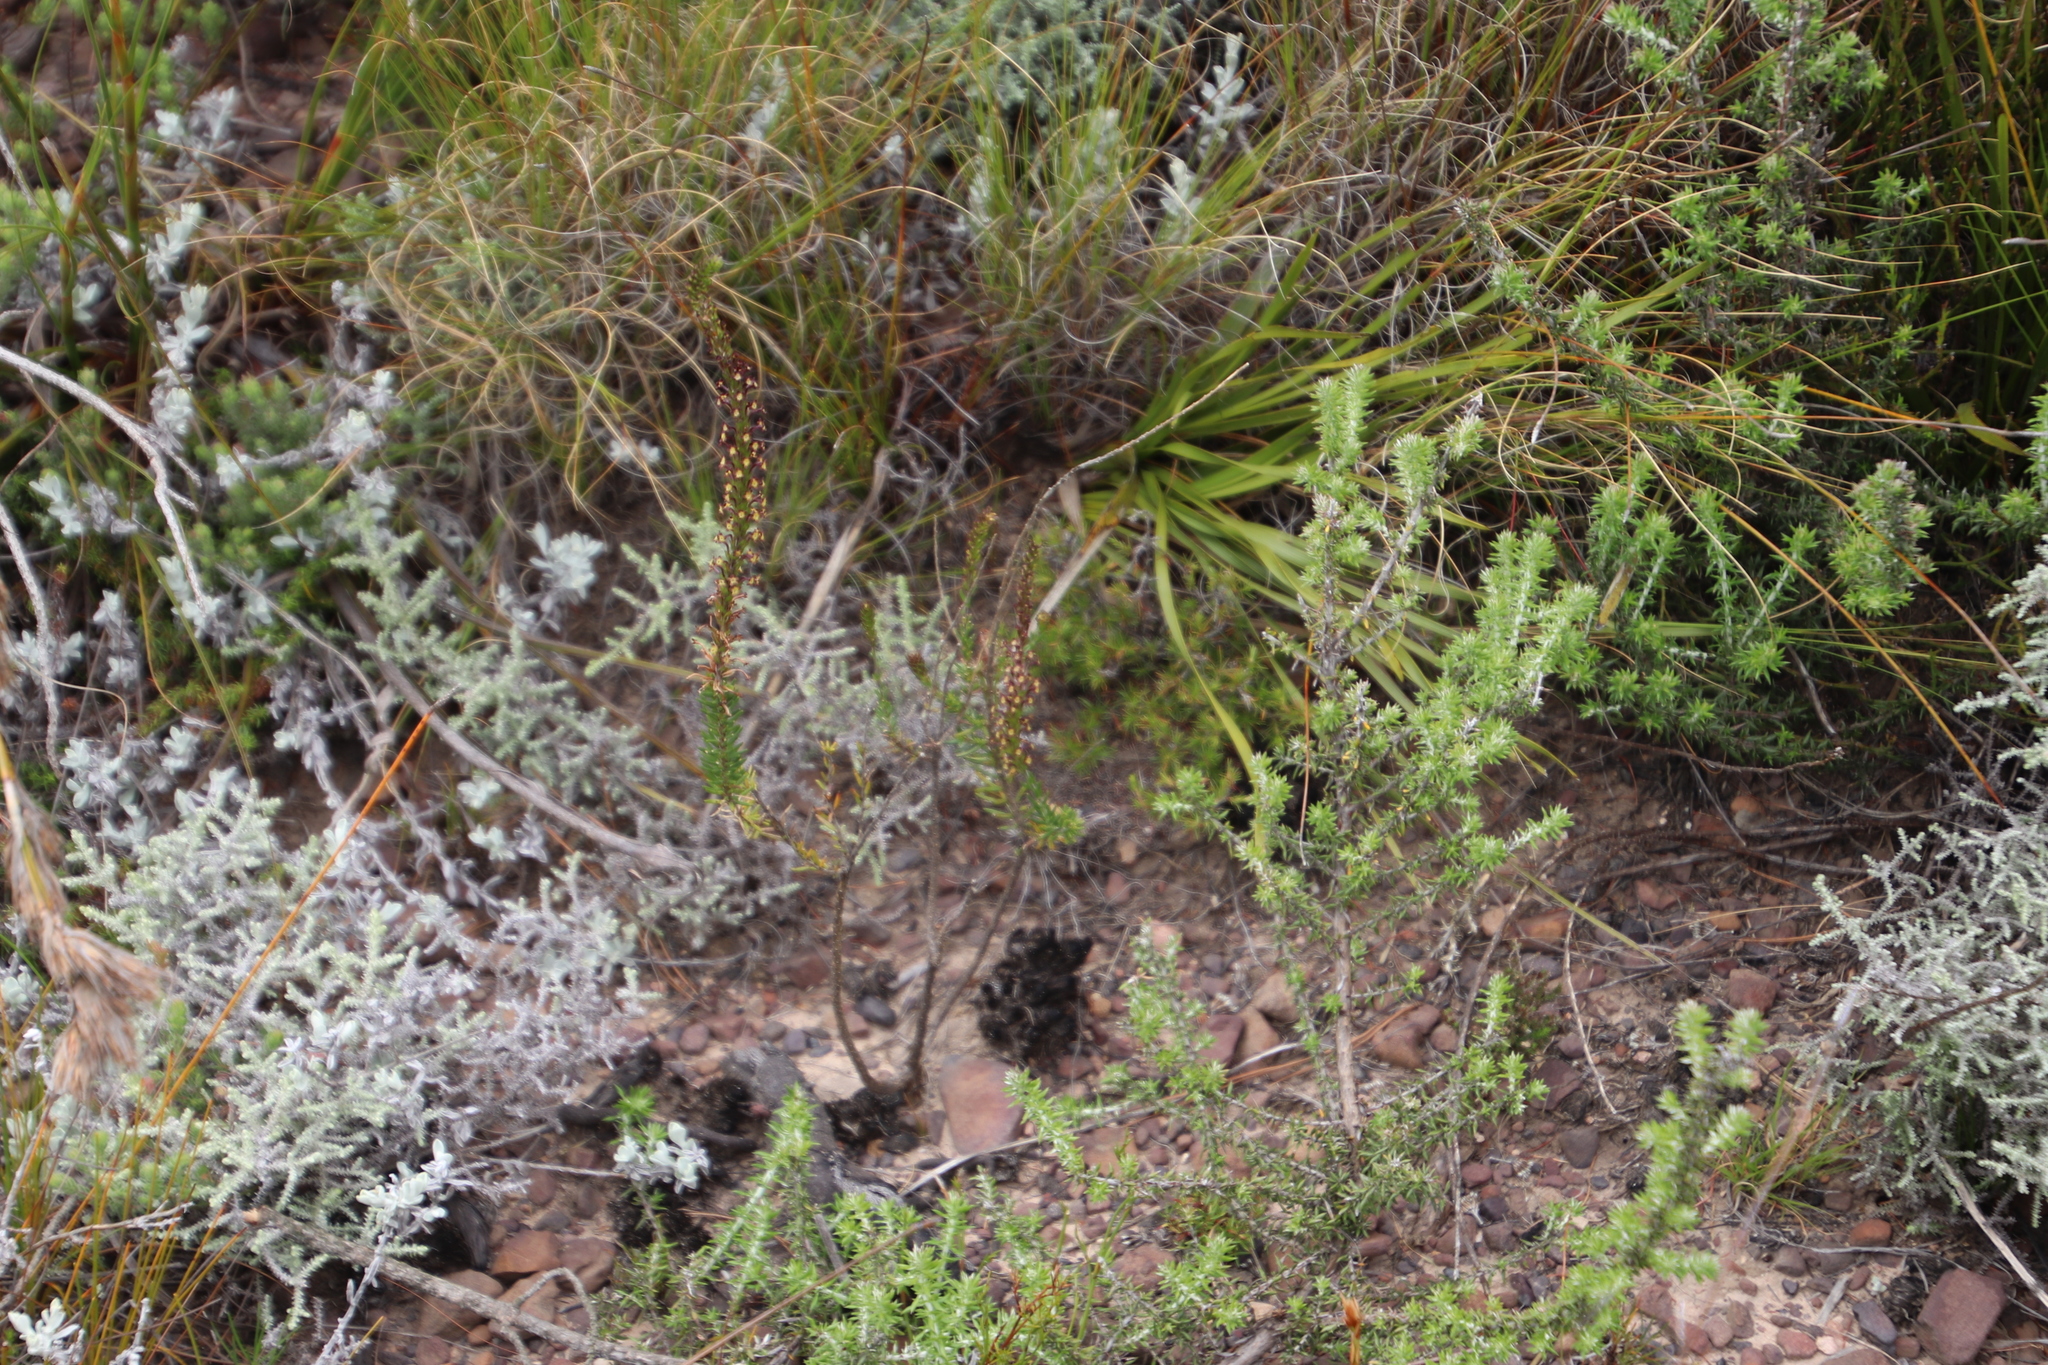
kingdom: Plantae
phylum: Tracheophyta
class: Magnoliopsida
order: Lamiales
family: Scrophulariaceae
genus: Microdon
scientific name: Microdon dubius
